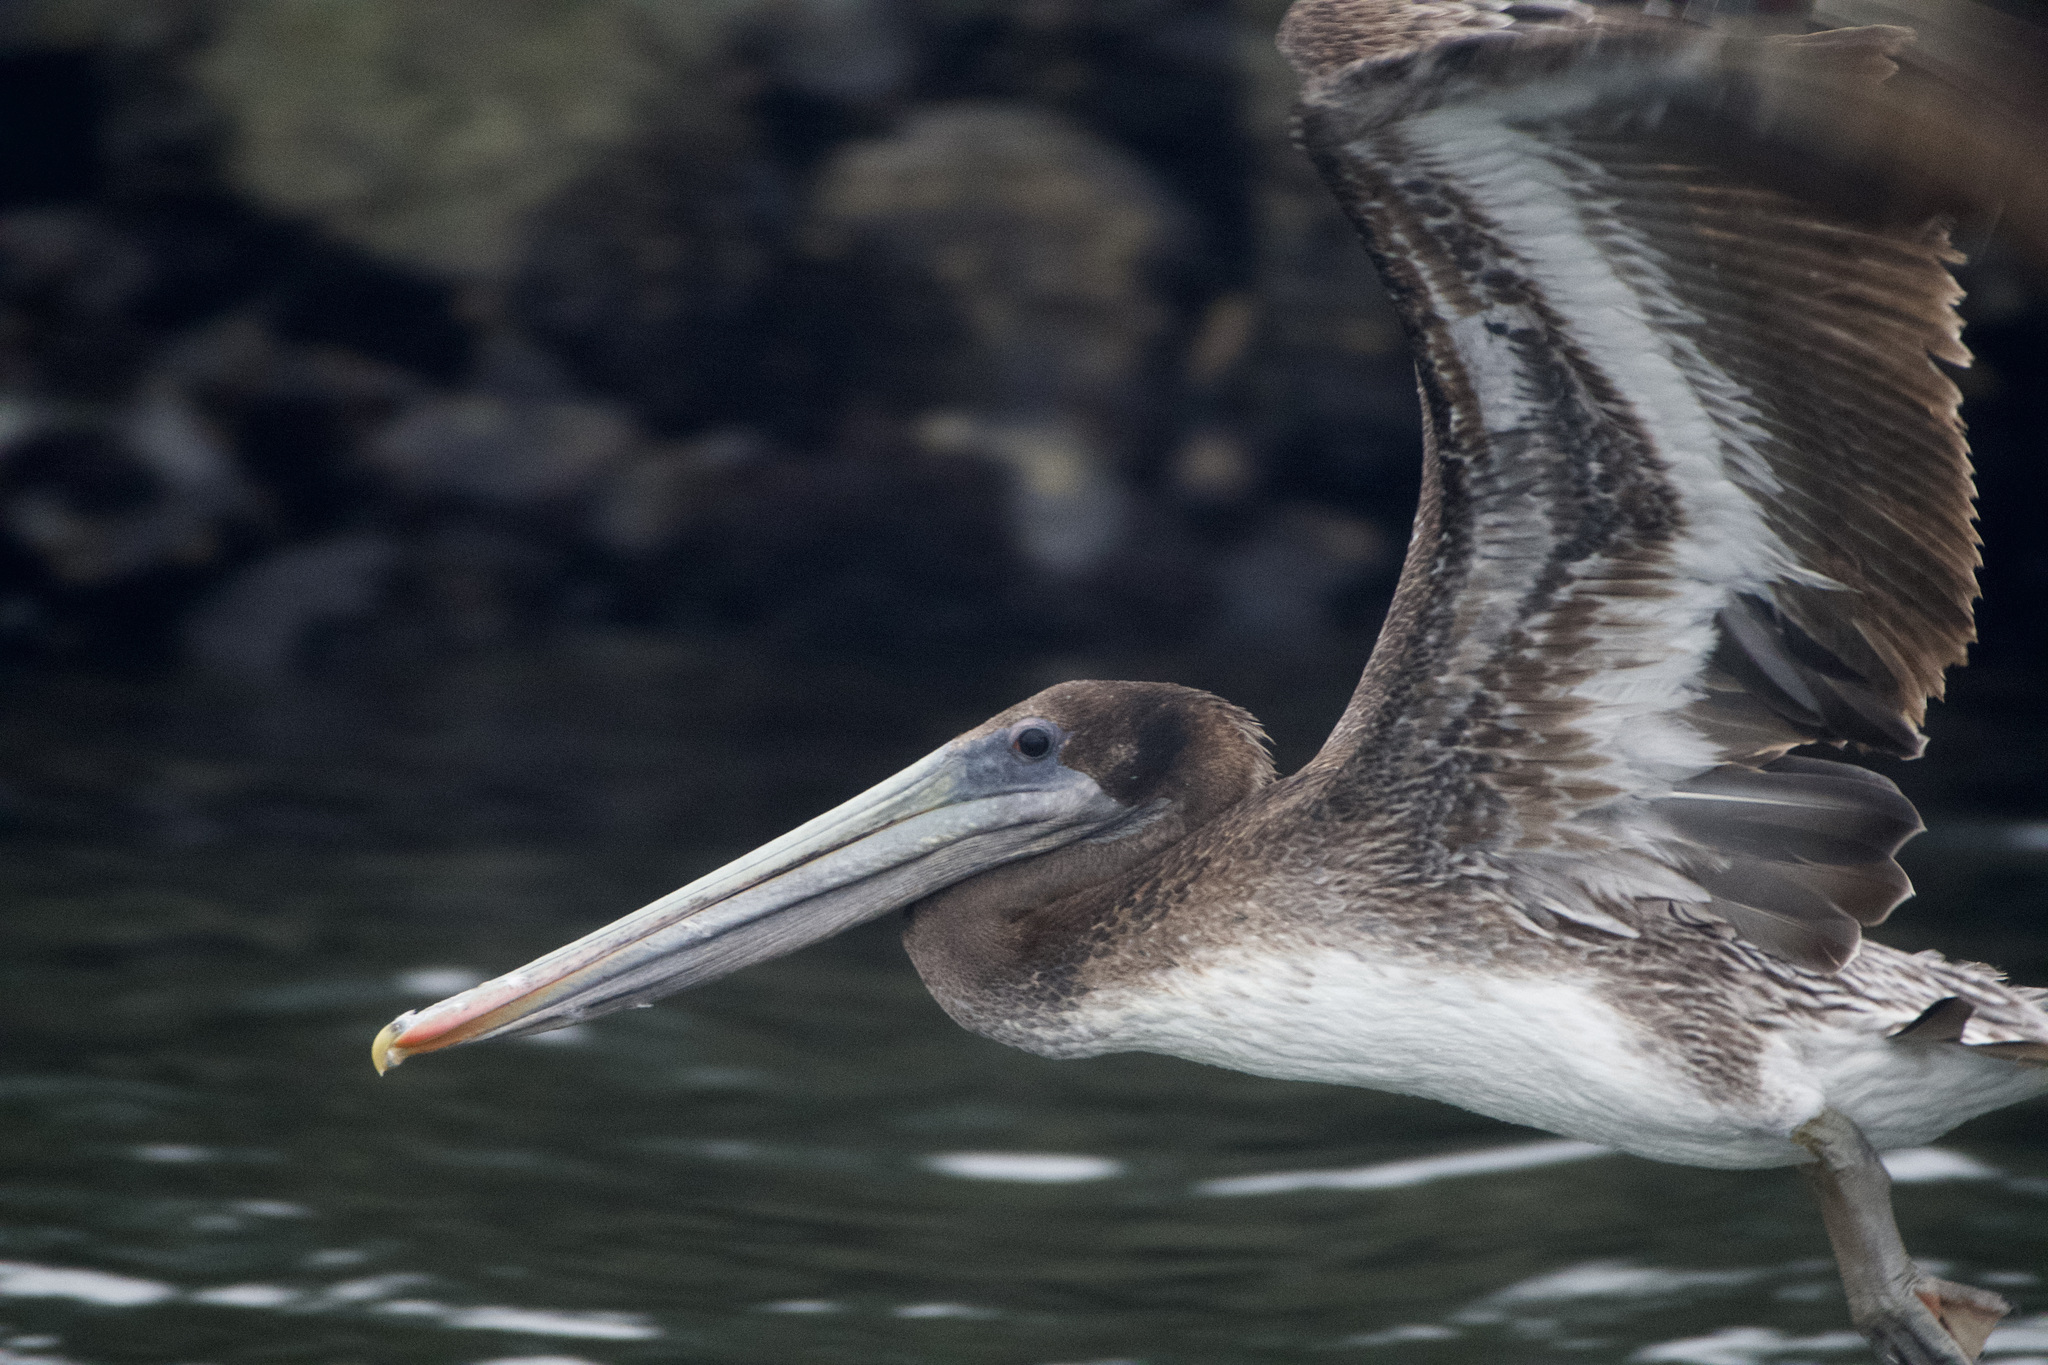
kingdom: Animalia
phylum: Chordata
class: Aves
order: Pelecaniformes
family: Pelecanidae
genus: Pelecanus
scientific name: Pelecanus occidentalis
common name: Brown pelican
